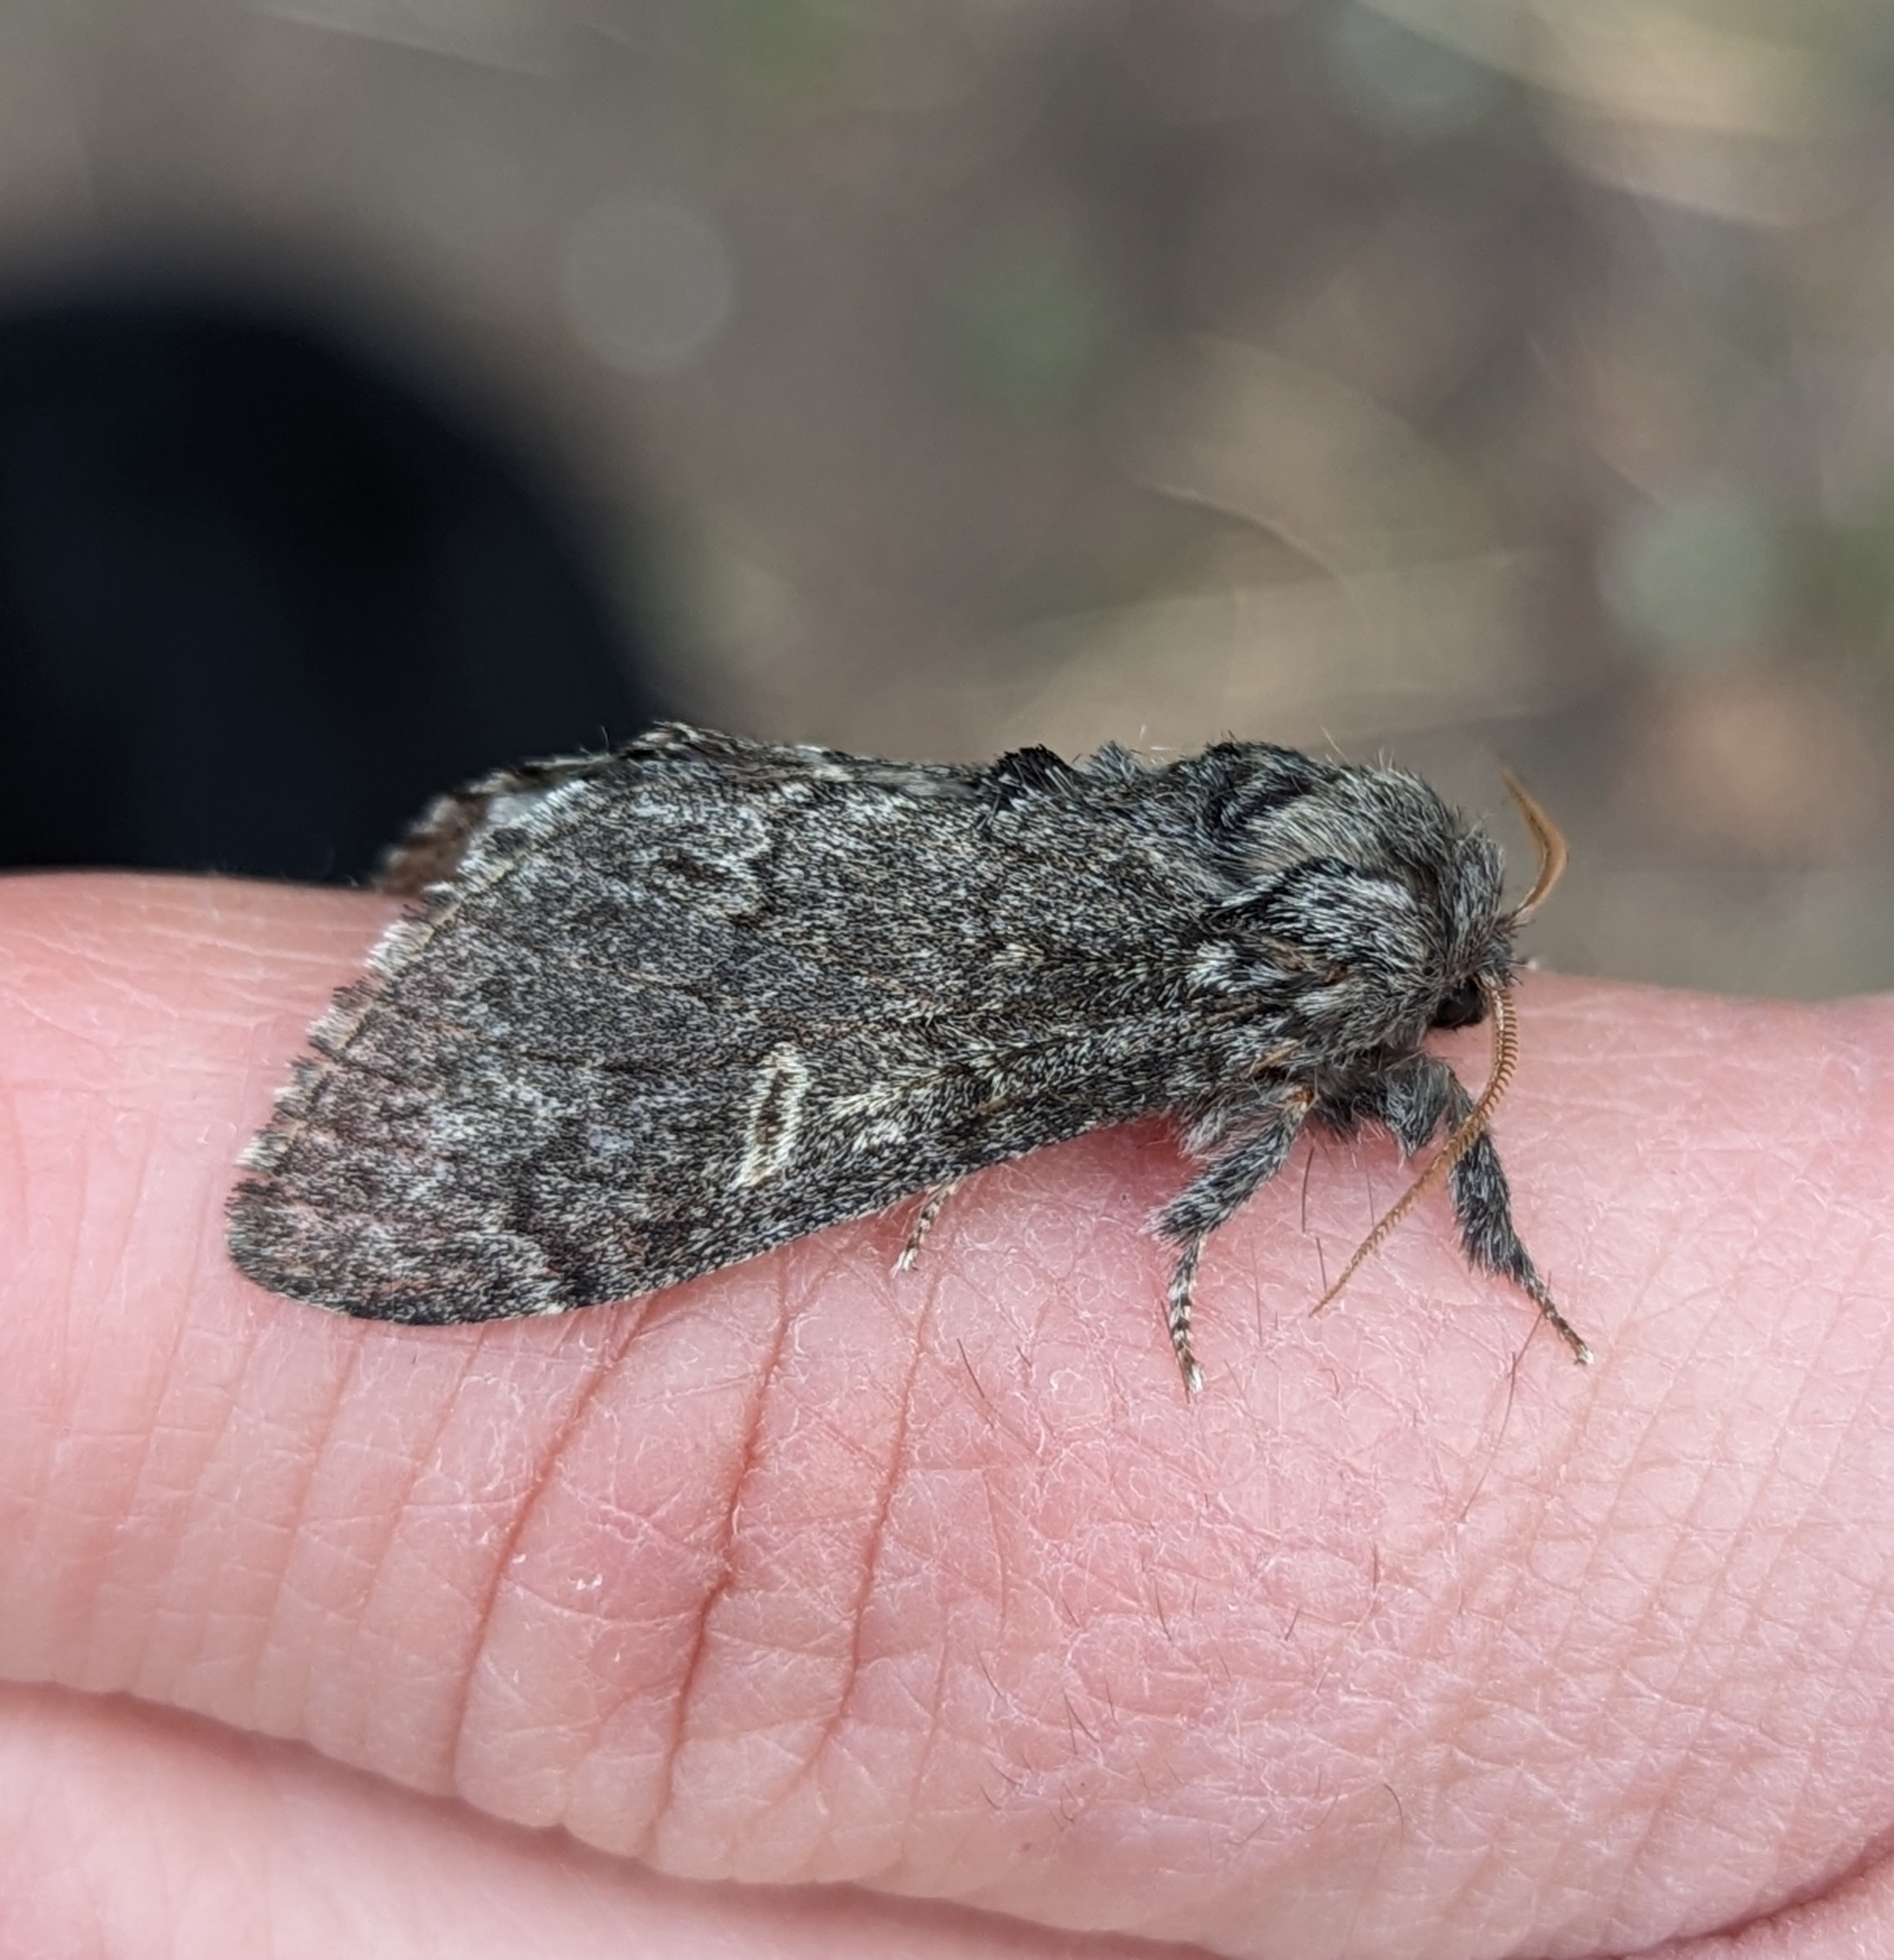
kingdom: Animalia
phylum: Arthropoda
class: Insecta
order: Lepidoptera
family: Notodontidae
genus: Notodonta
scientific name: Notodonta torva
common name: Large dark prominent
